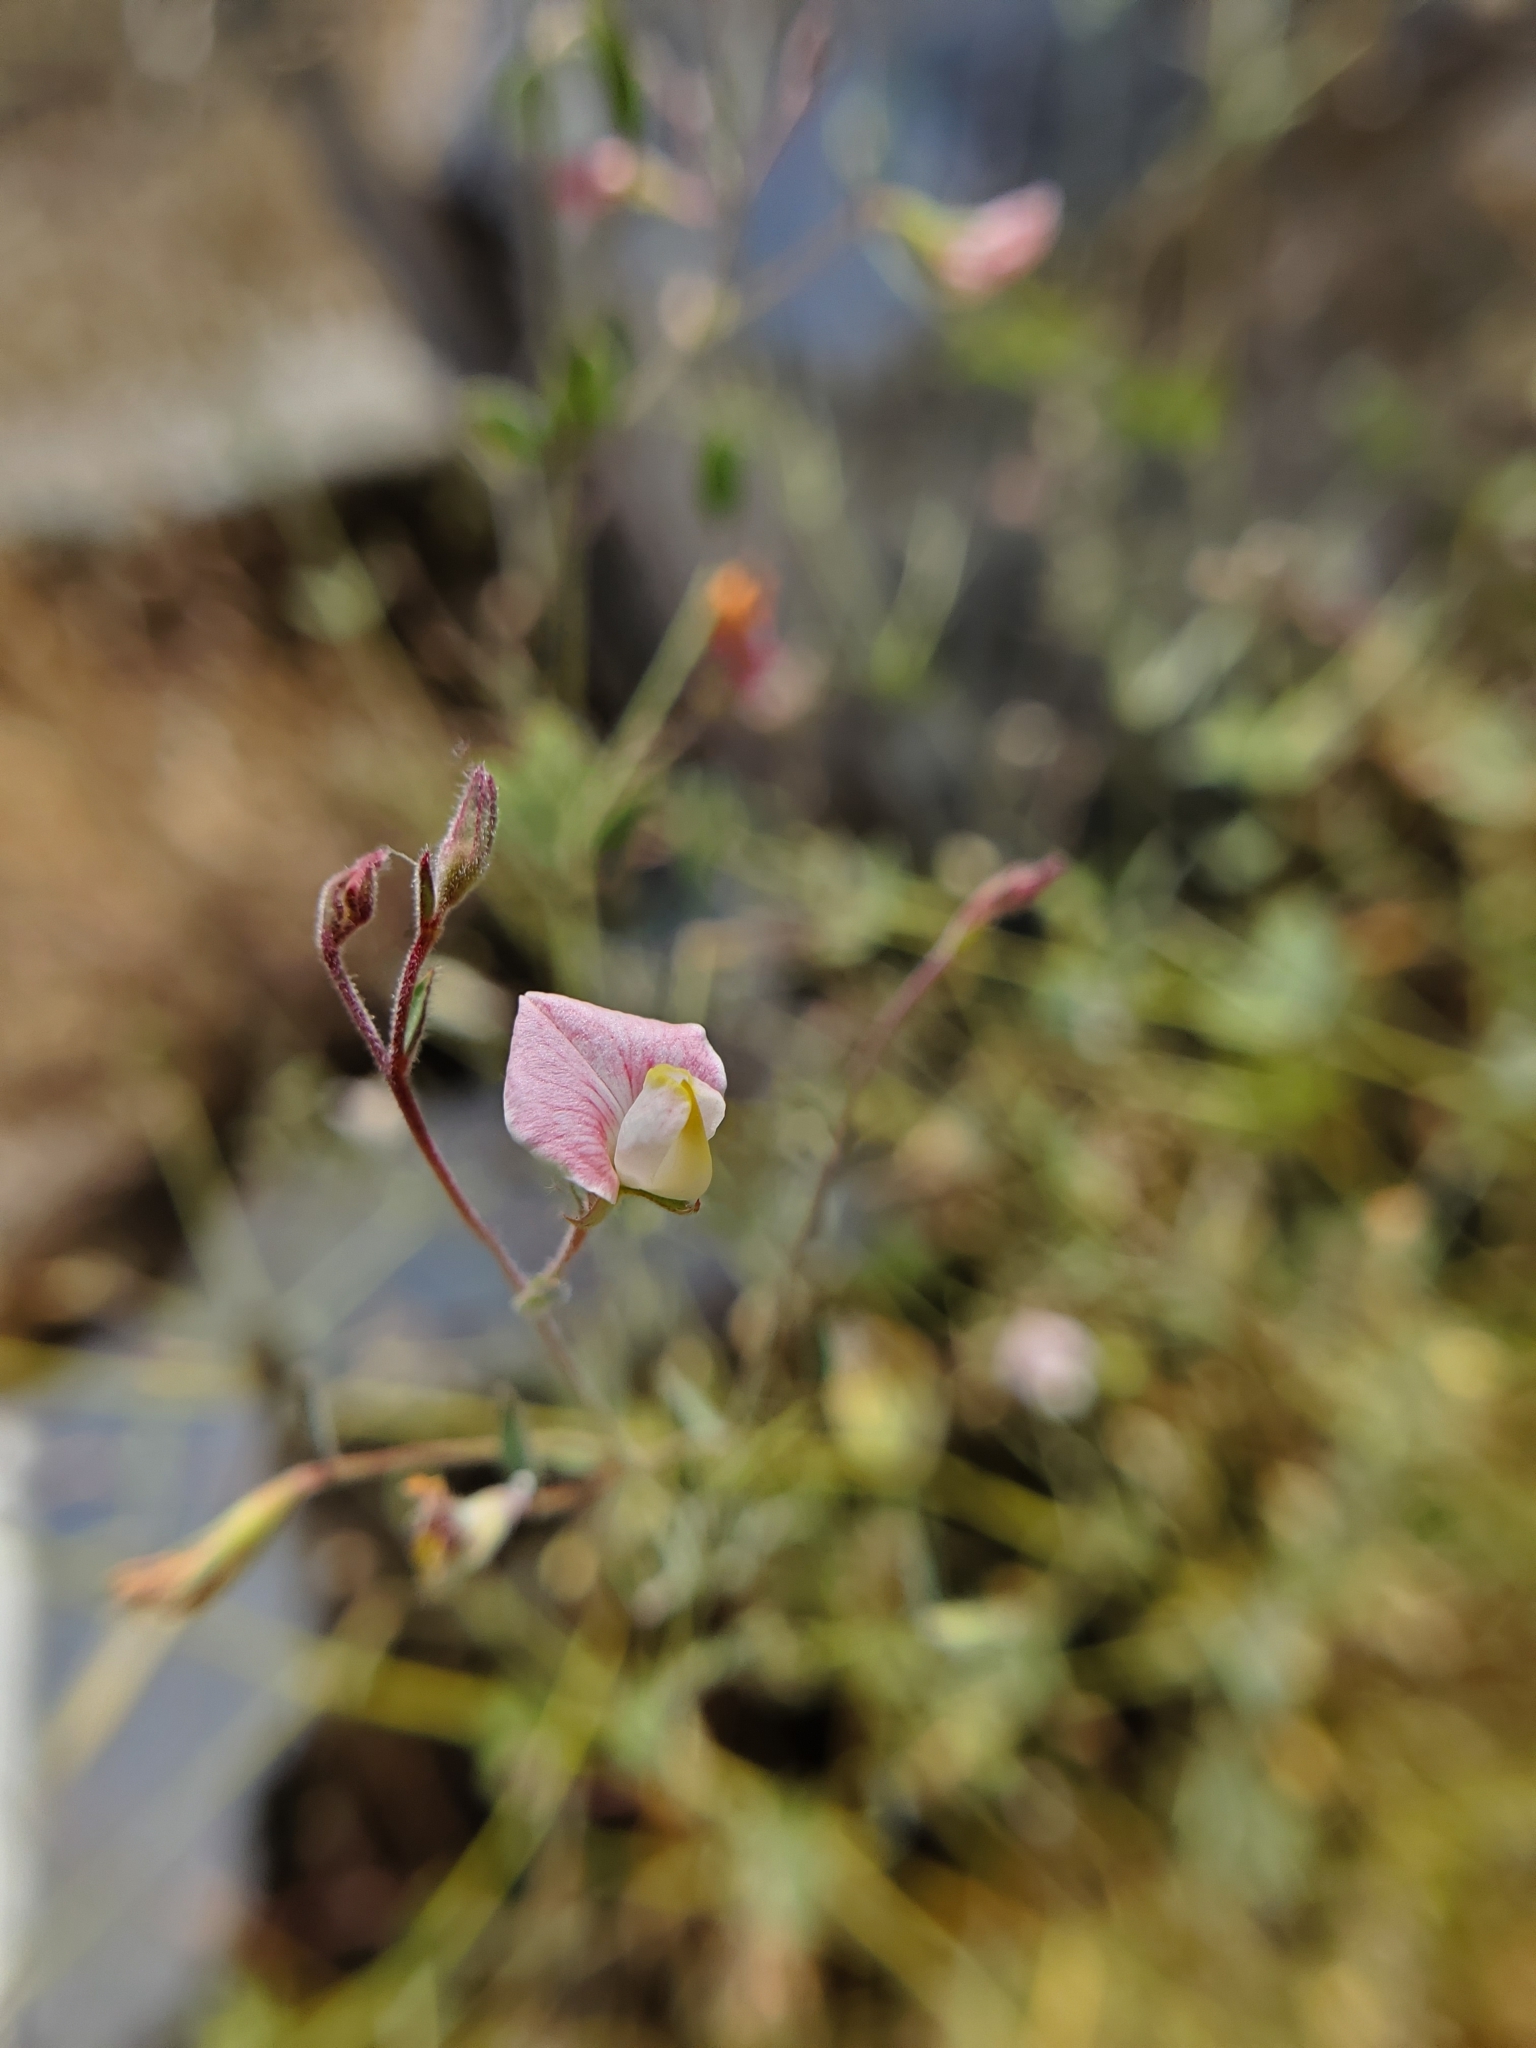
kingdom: Plantae
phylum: Tracheophyta
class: Magnoliopsida
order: Fabales
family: Fabaceae
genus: Acmispon
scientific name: Acmispon americanus
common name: American bird's-foot trefoil
